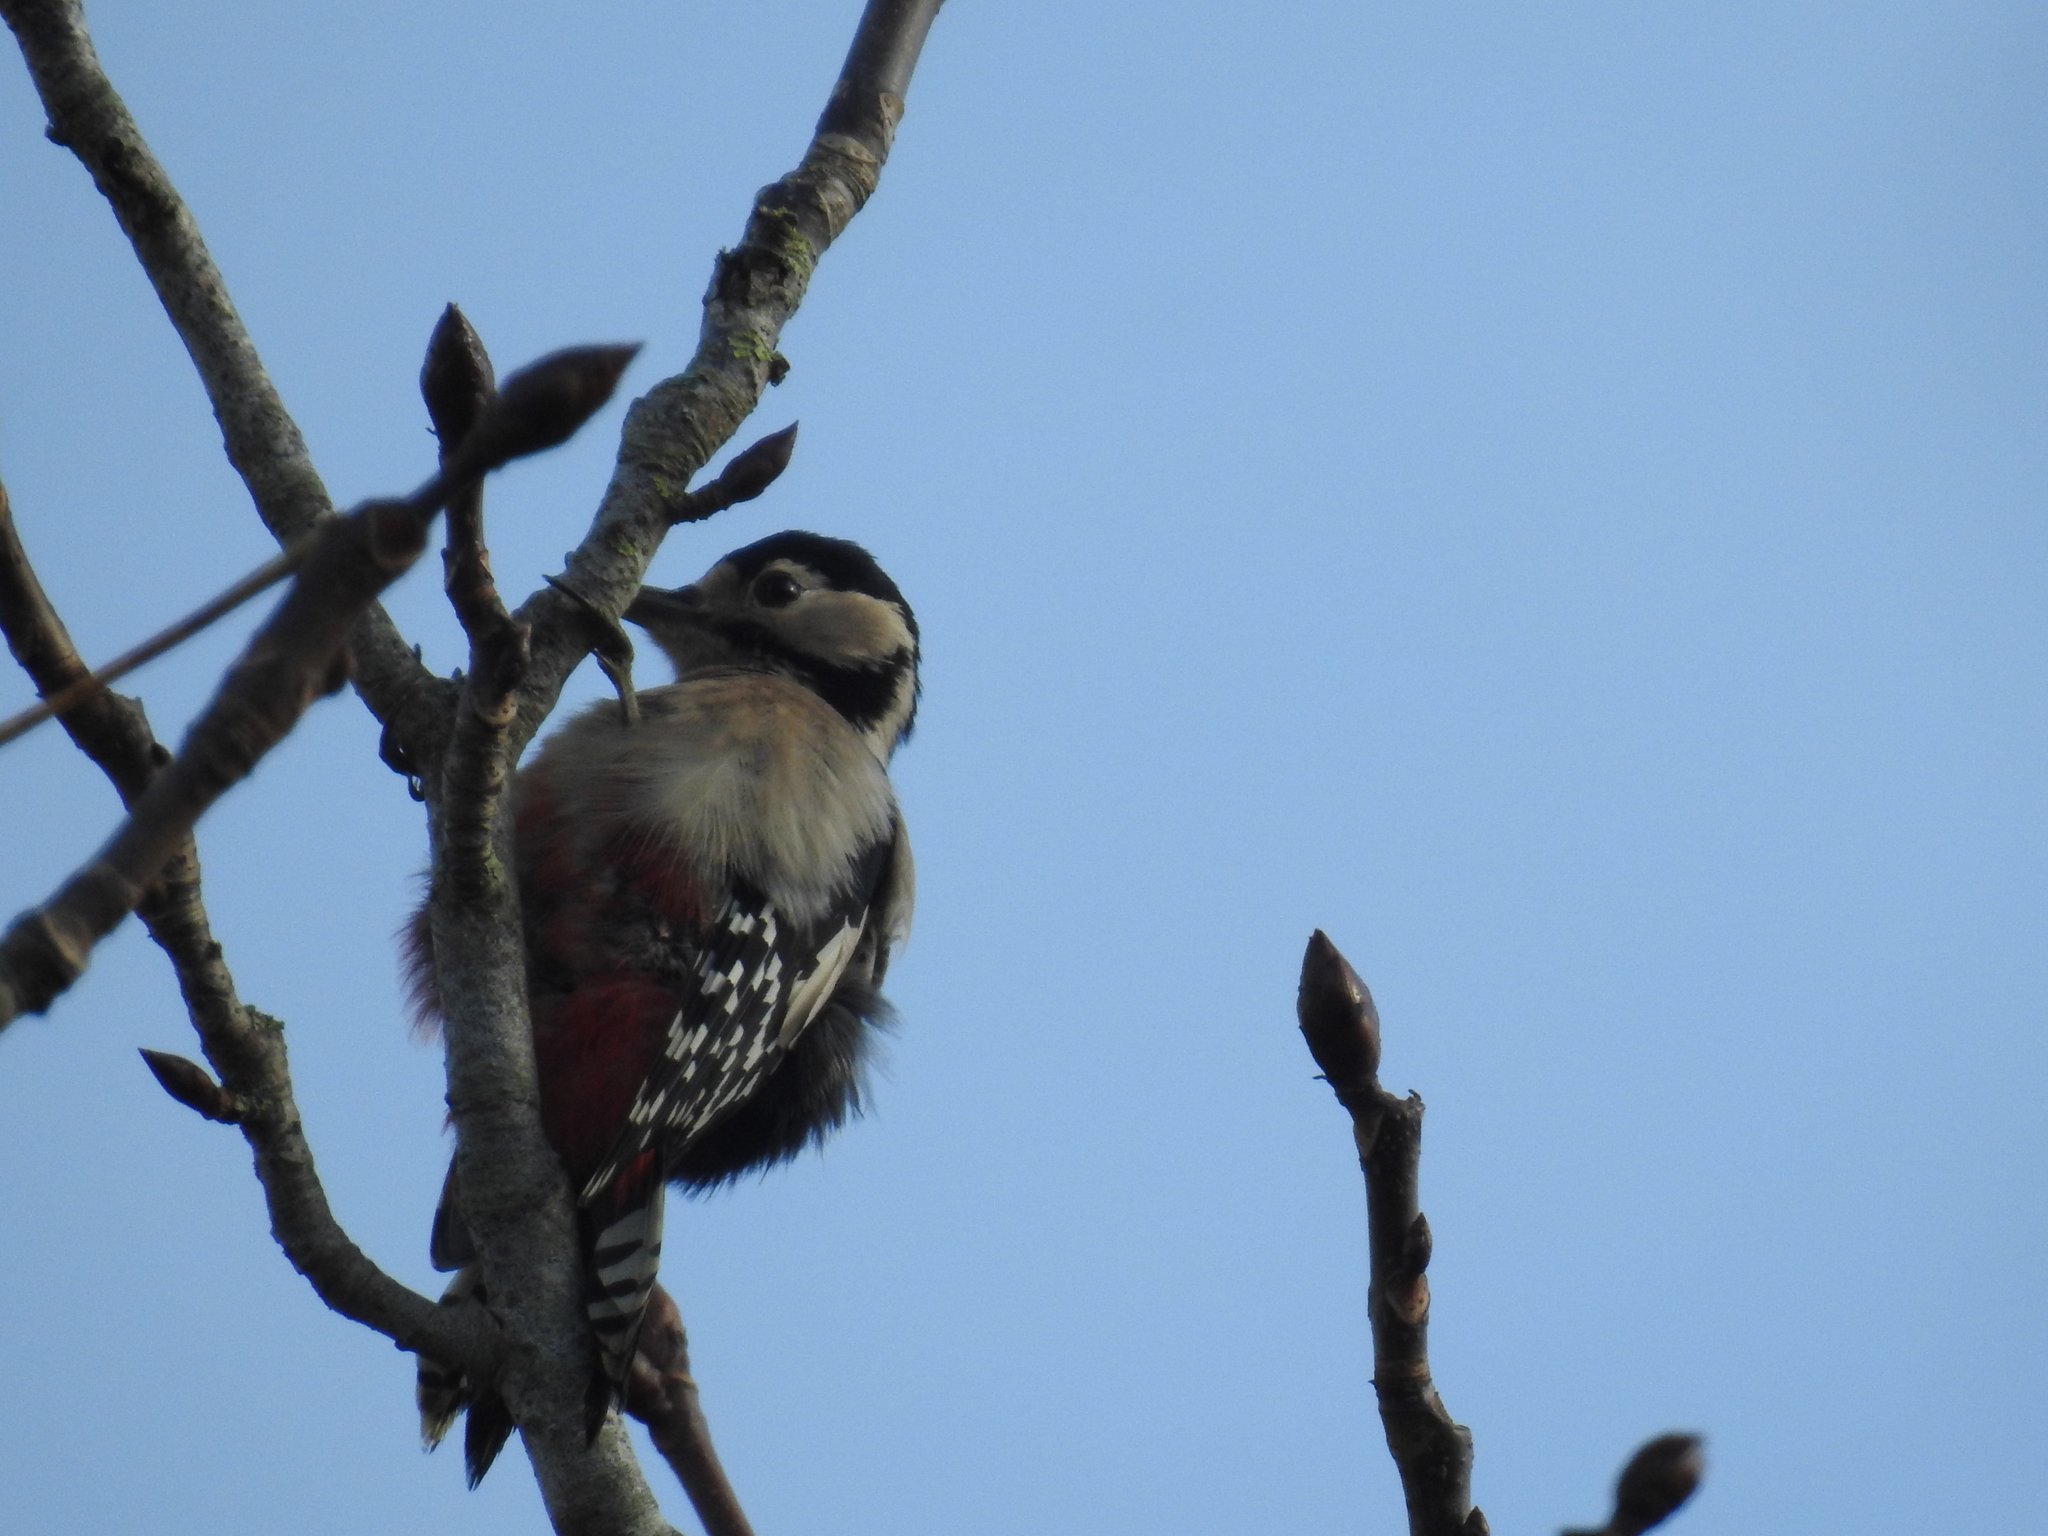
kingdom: Animalia
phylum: Chordata
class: Aves
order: Piciformes
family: Picidae
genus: Dendrocopos
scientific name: Dendrocopos major
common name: Great spotted woodpecker
